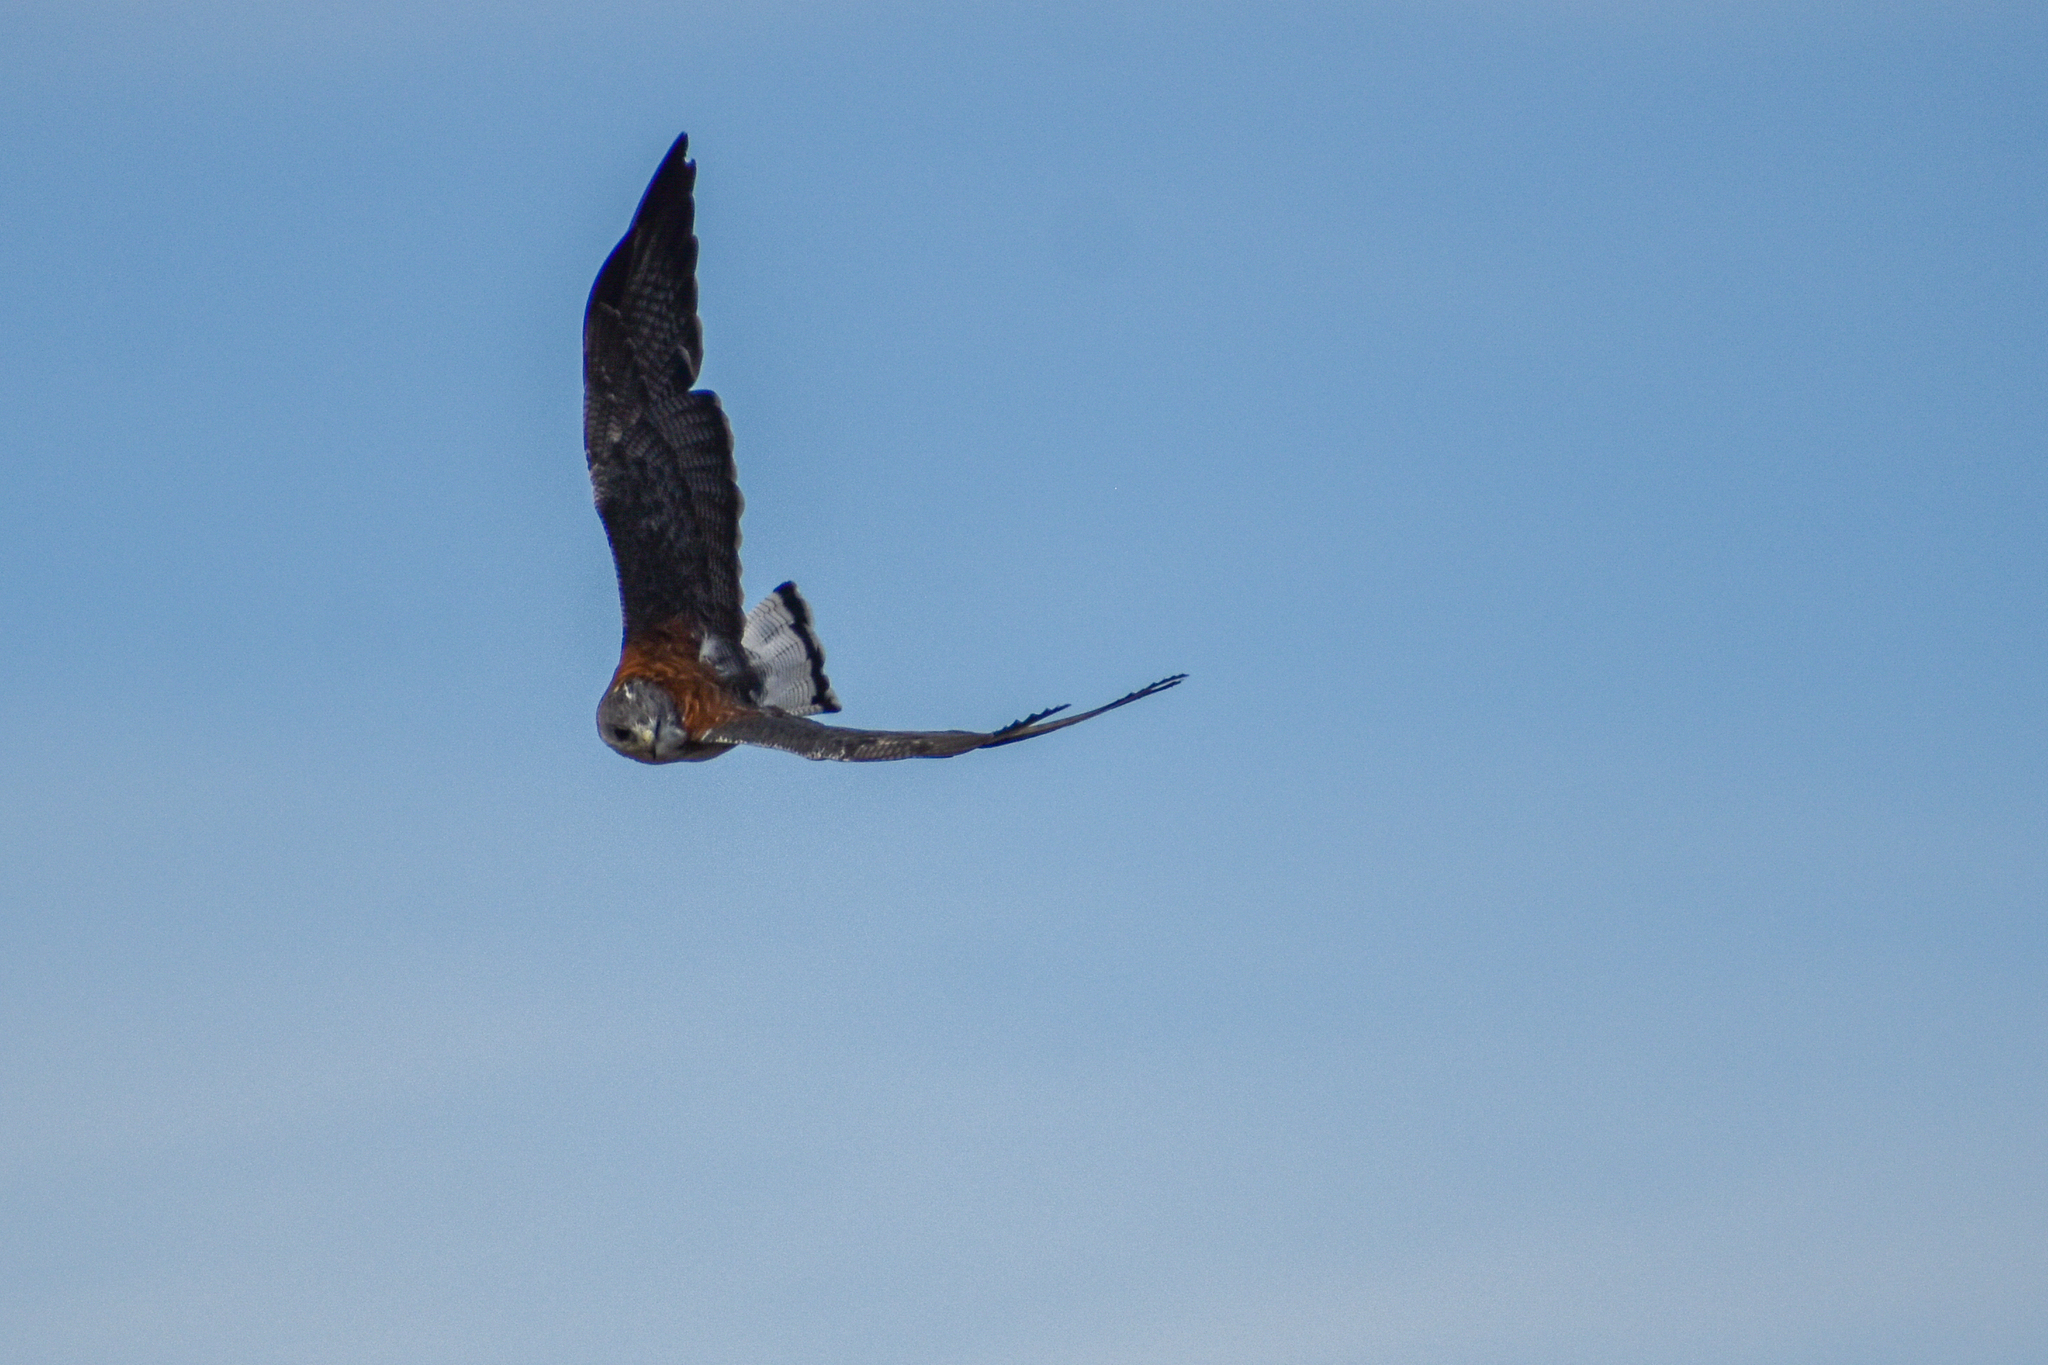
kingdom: Animalia
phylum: Chordata
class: Aves
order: Accipitriformes
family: Accipitridae
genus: Buteo
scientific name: Buteo polyosoma
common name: Variable hawk
